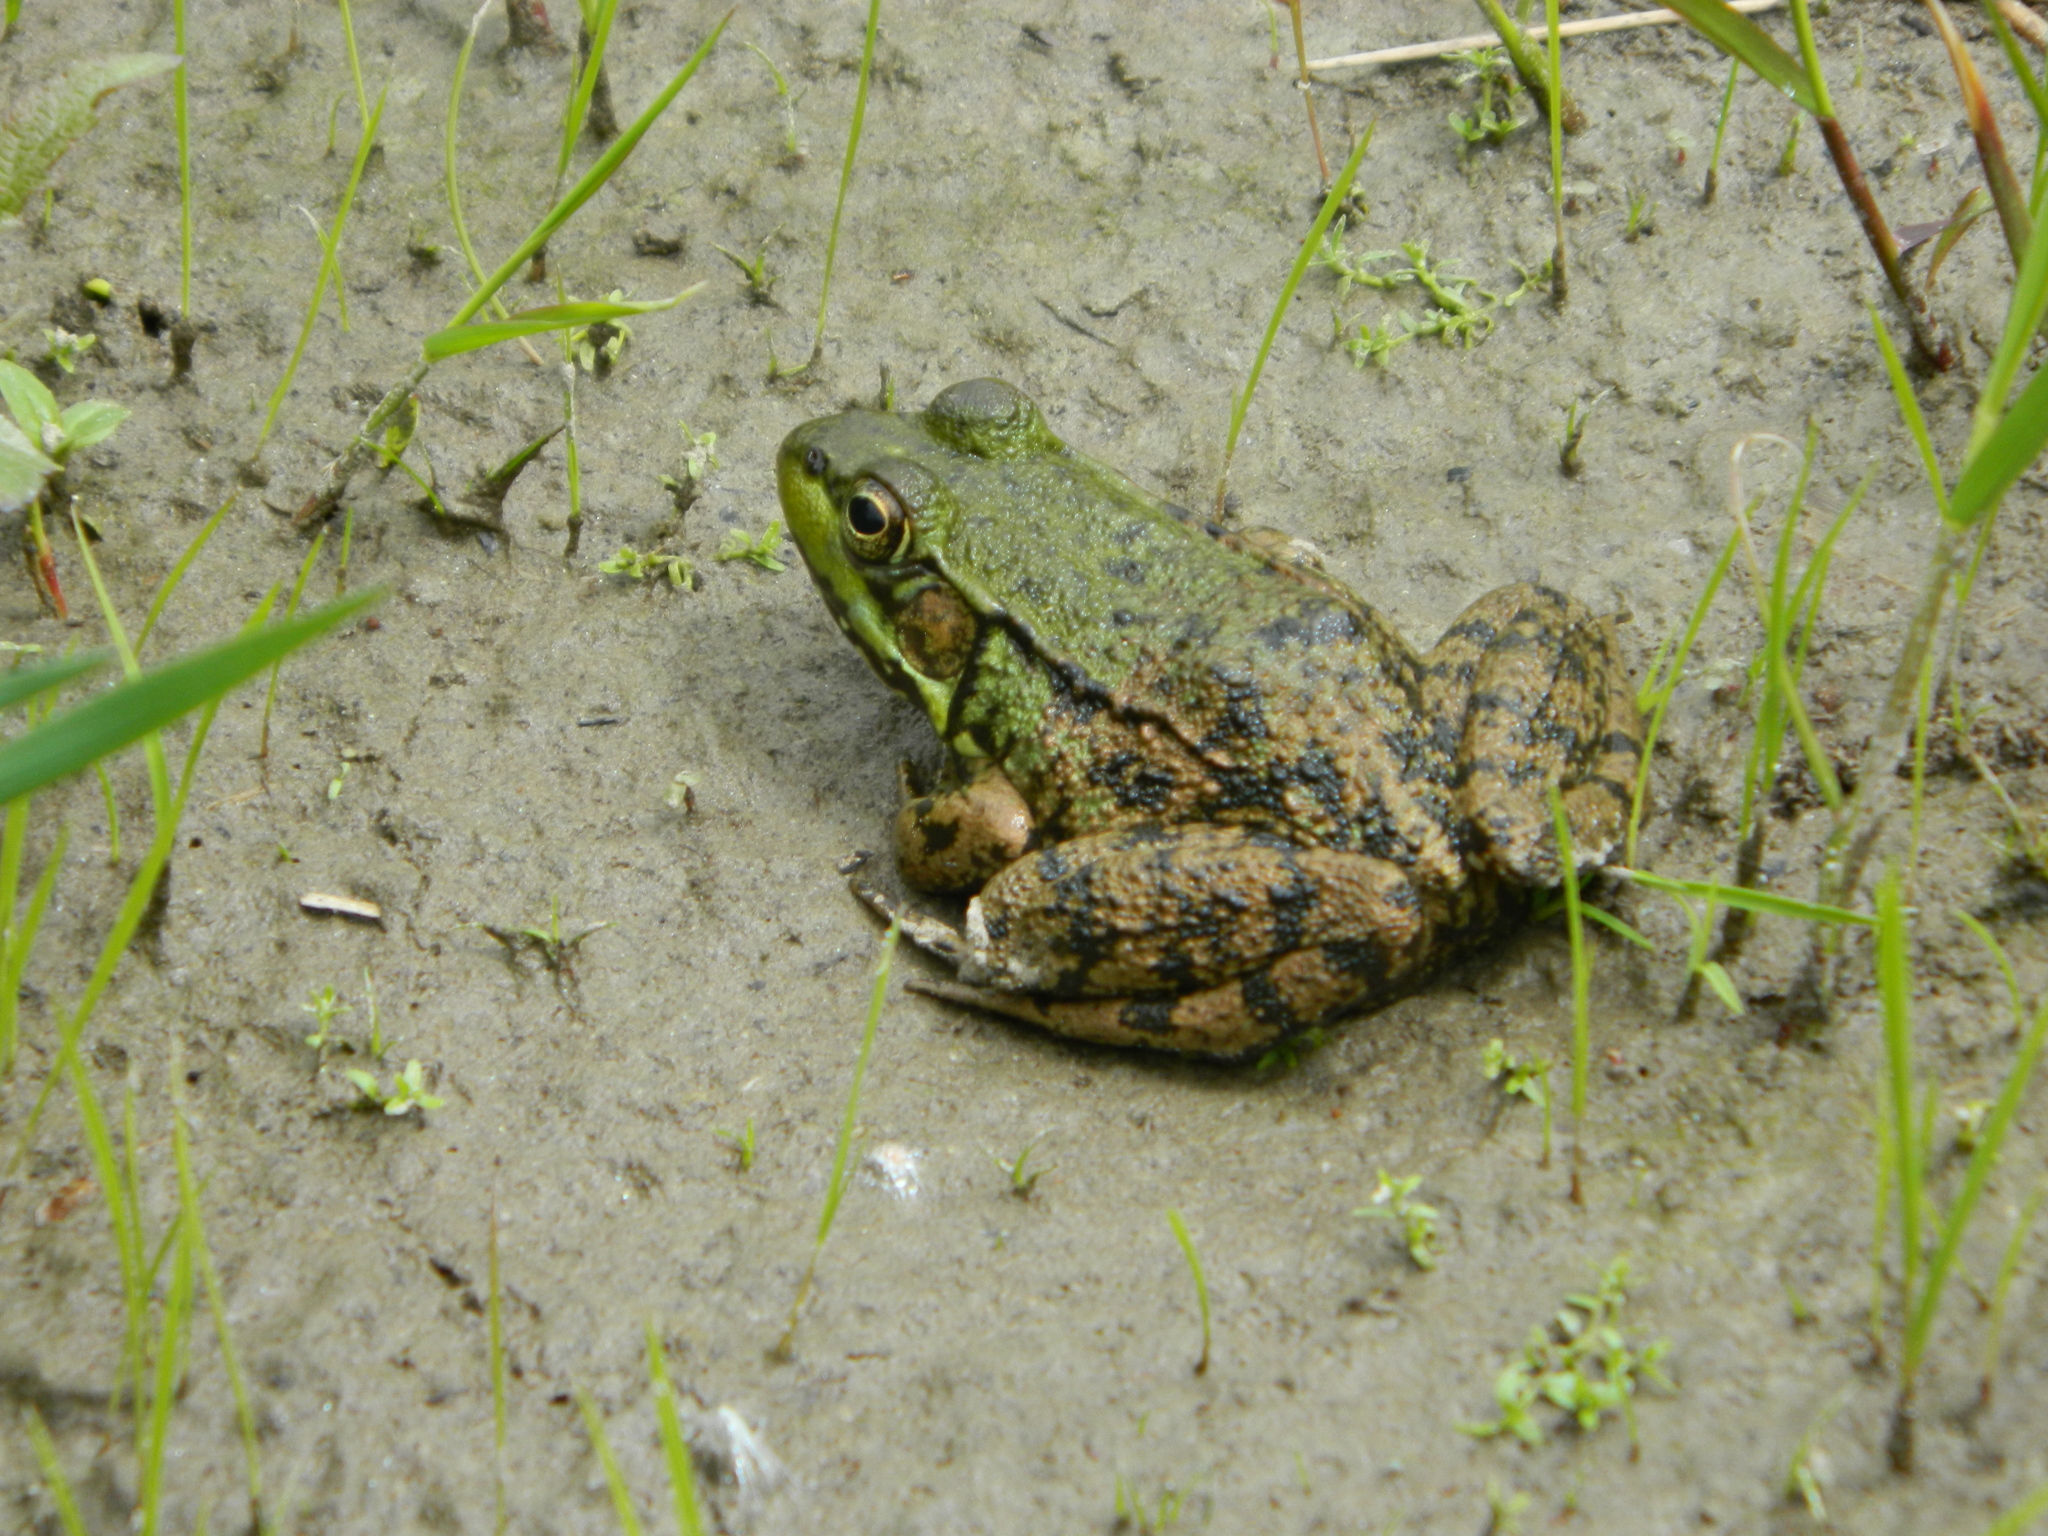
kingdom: Animalia
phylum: Chordata
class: Amphibia
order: Anura
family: Ranidae
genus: Lithobates
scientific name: Lithobates clamitans
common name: Green frog
